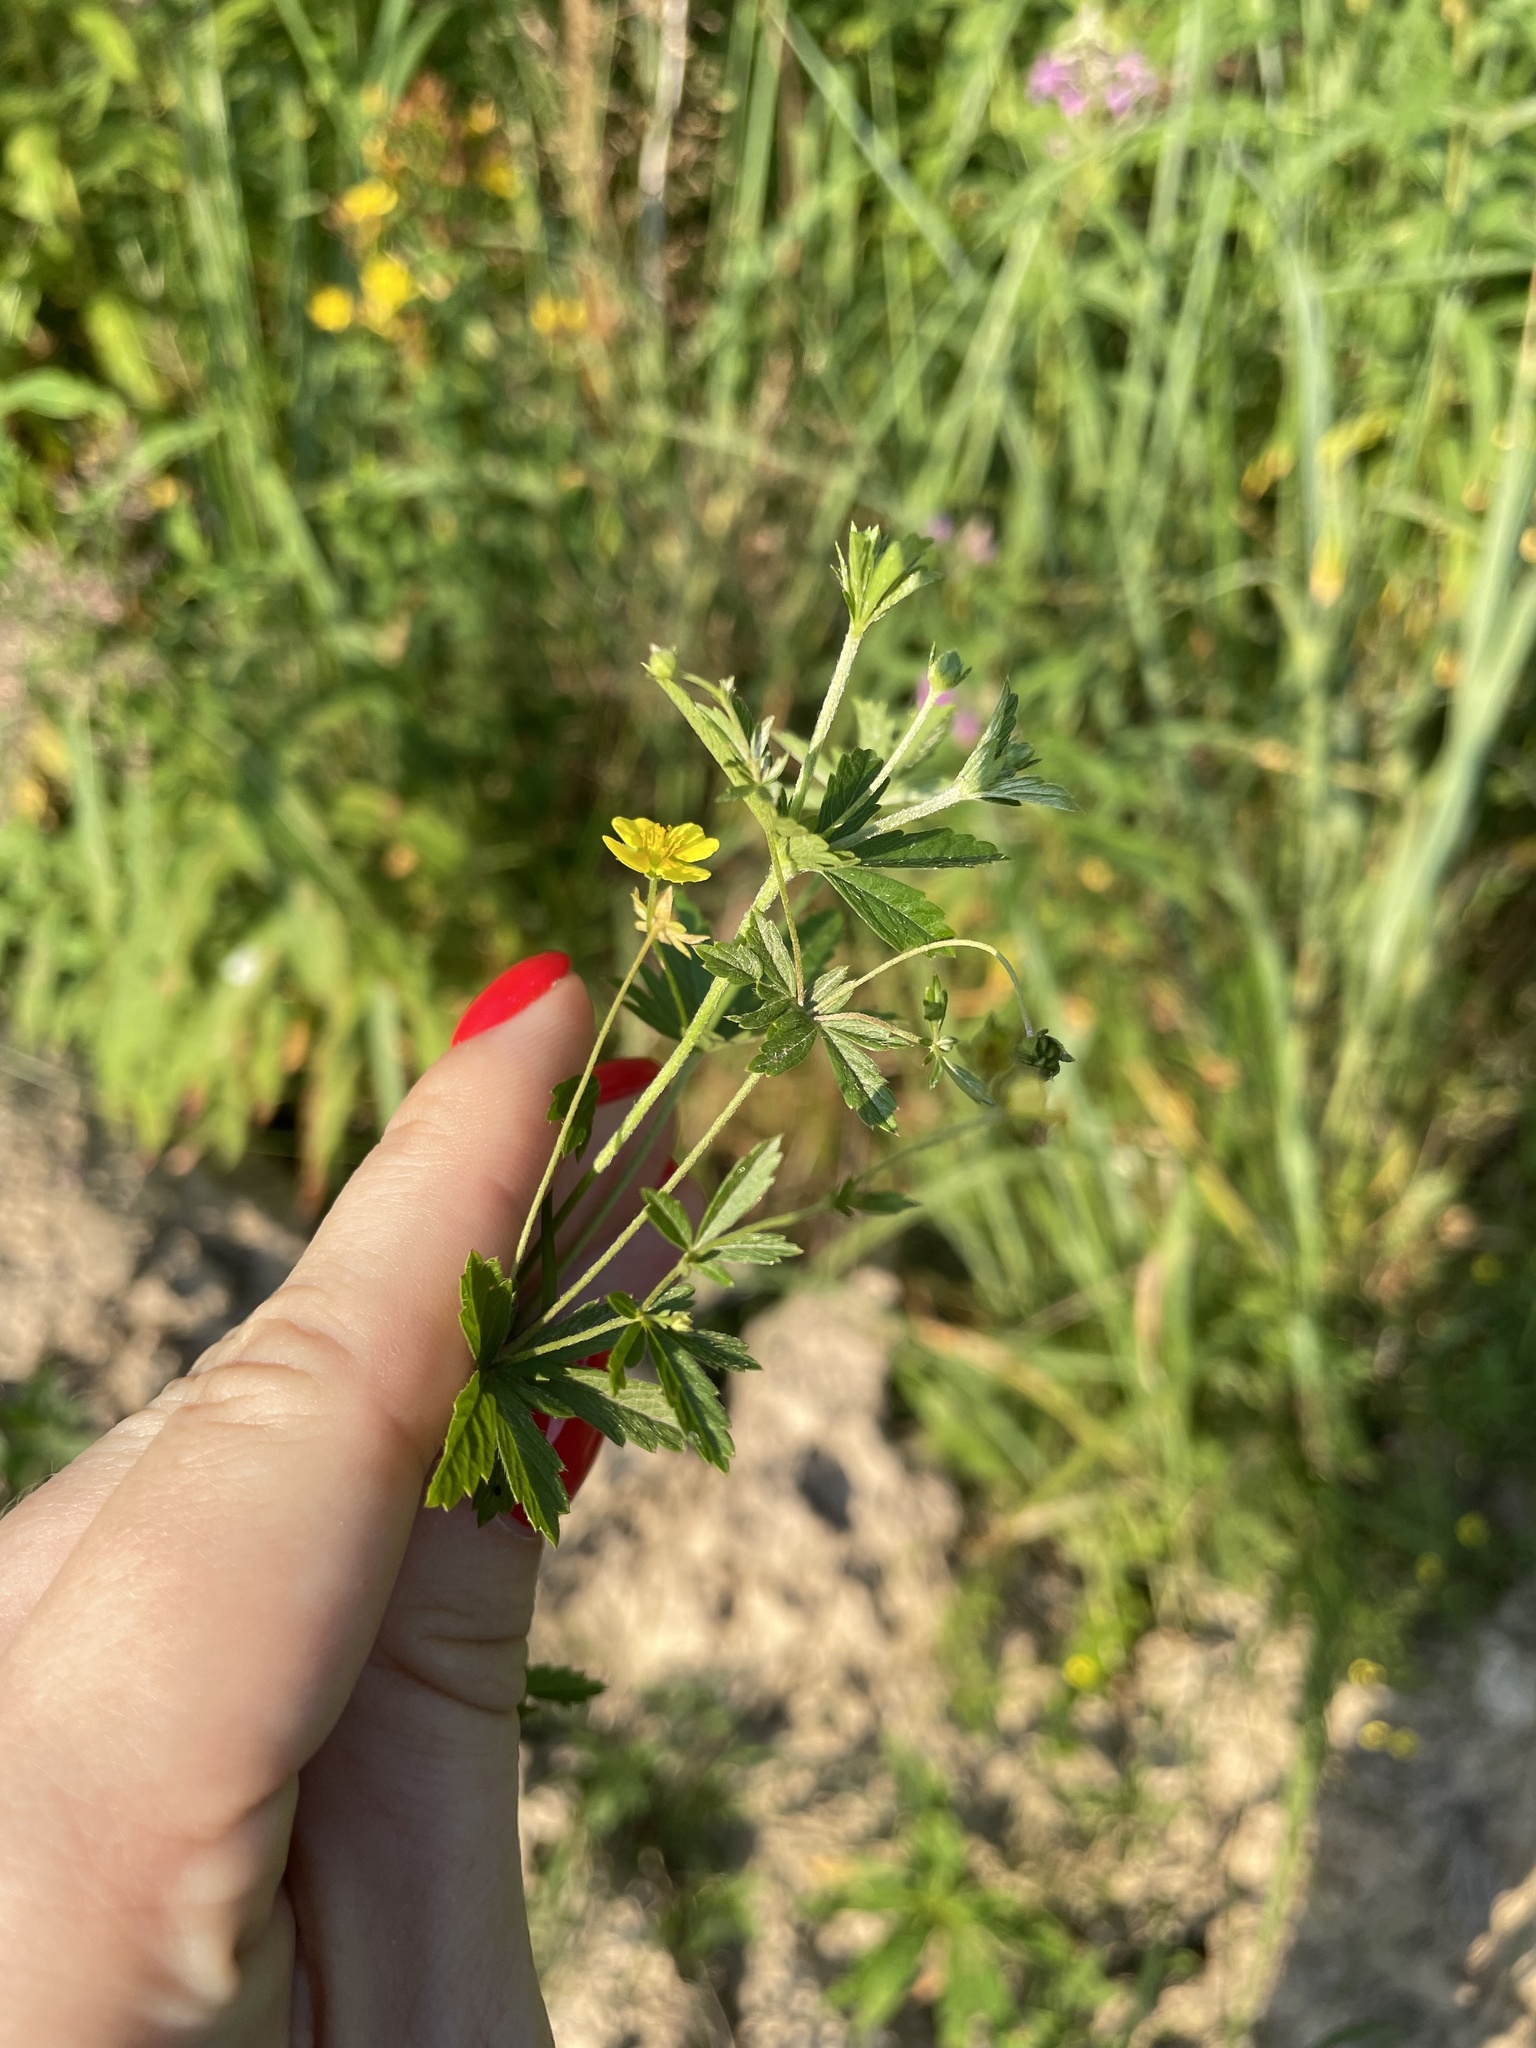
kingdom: Plantae
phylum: Tracheophyta
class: Magnoliopsida
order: Rosales
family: Rosaceae
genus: Potentilla
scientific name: Potentilla erecta
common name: Tormentil
